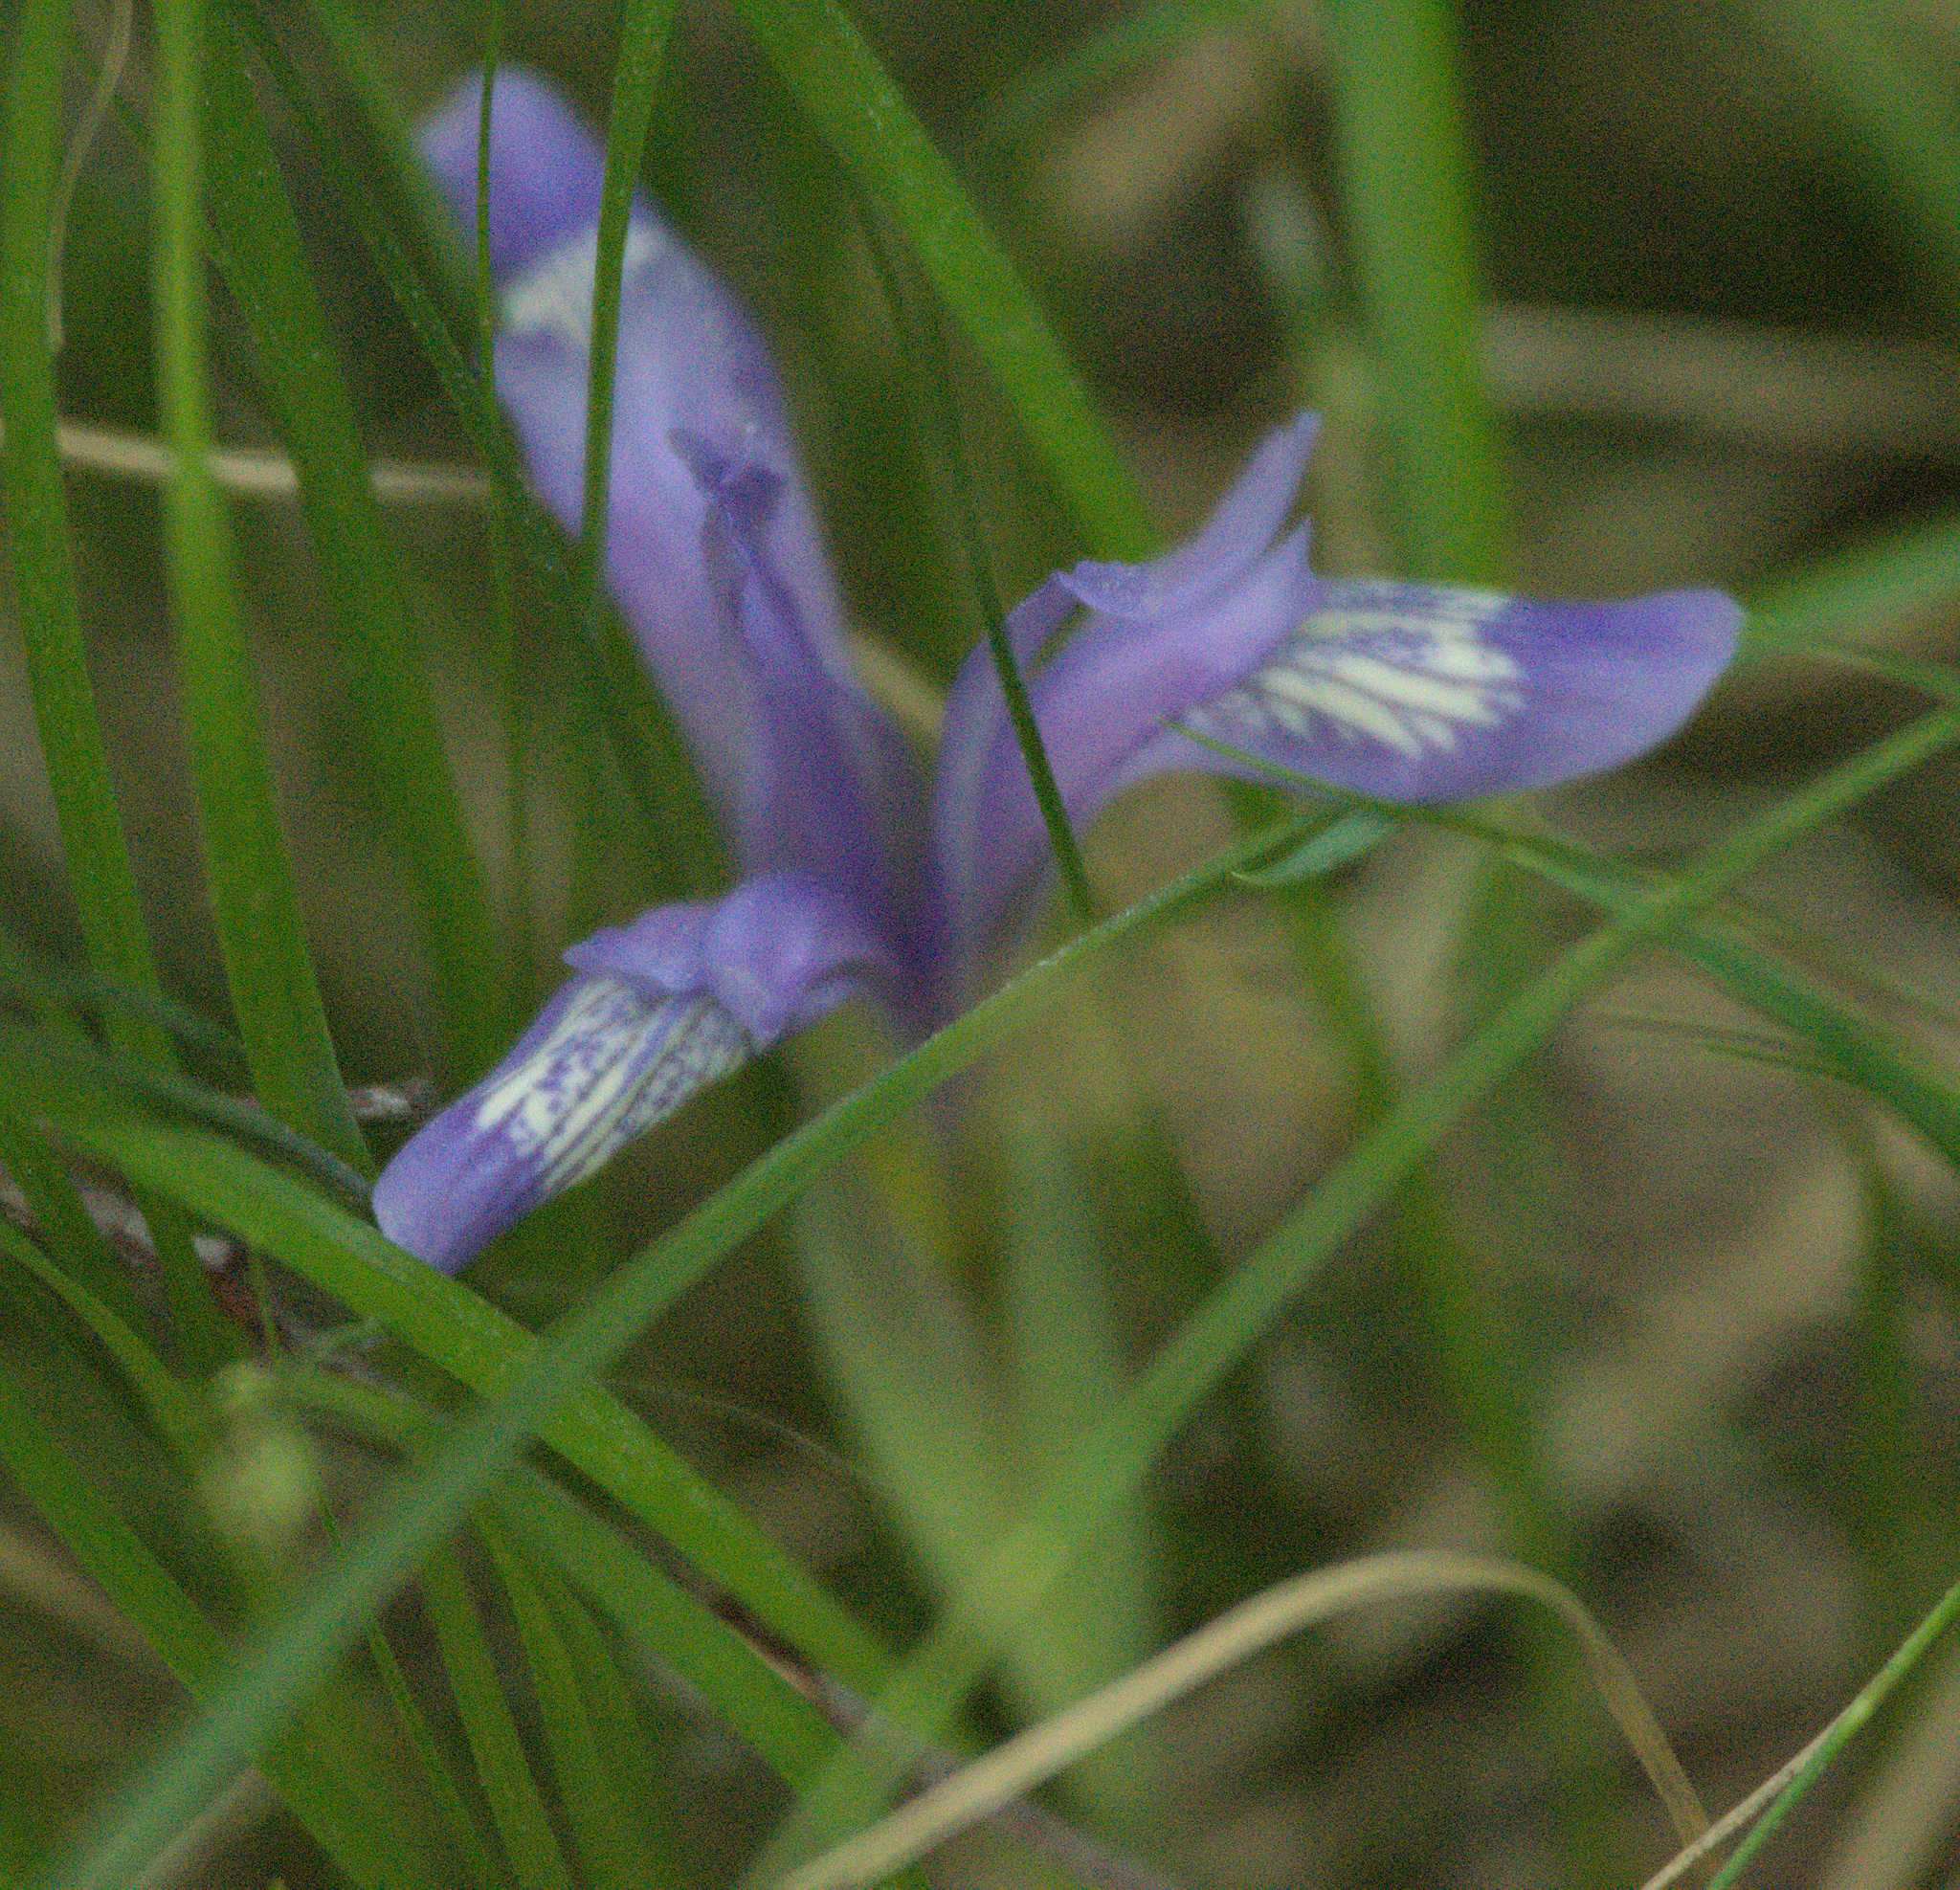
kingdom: Plantae
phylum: Tracheophyta
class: Liliopsida
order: Asparagales
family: Iridaceae
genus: Iris
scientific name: Iris ruthenica
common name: Purple-bract iris
